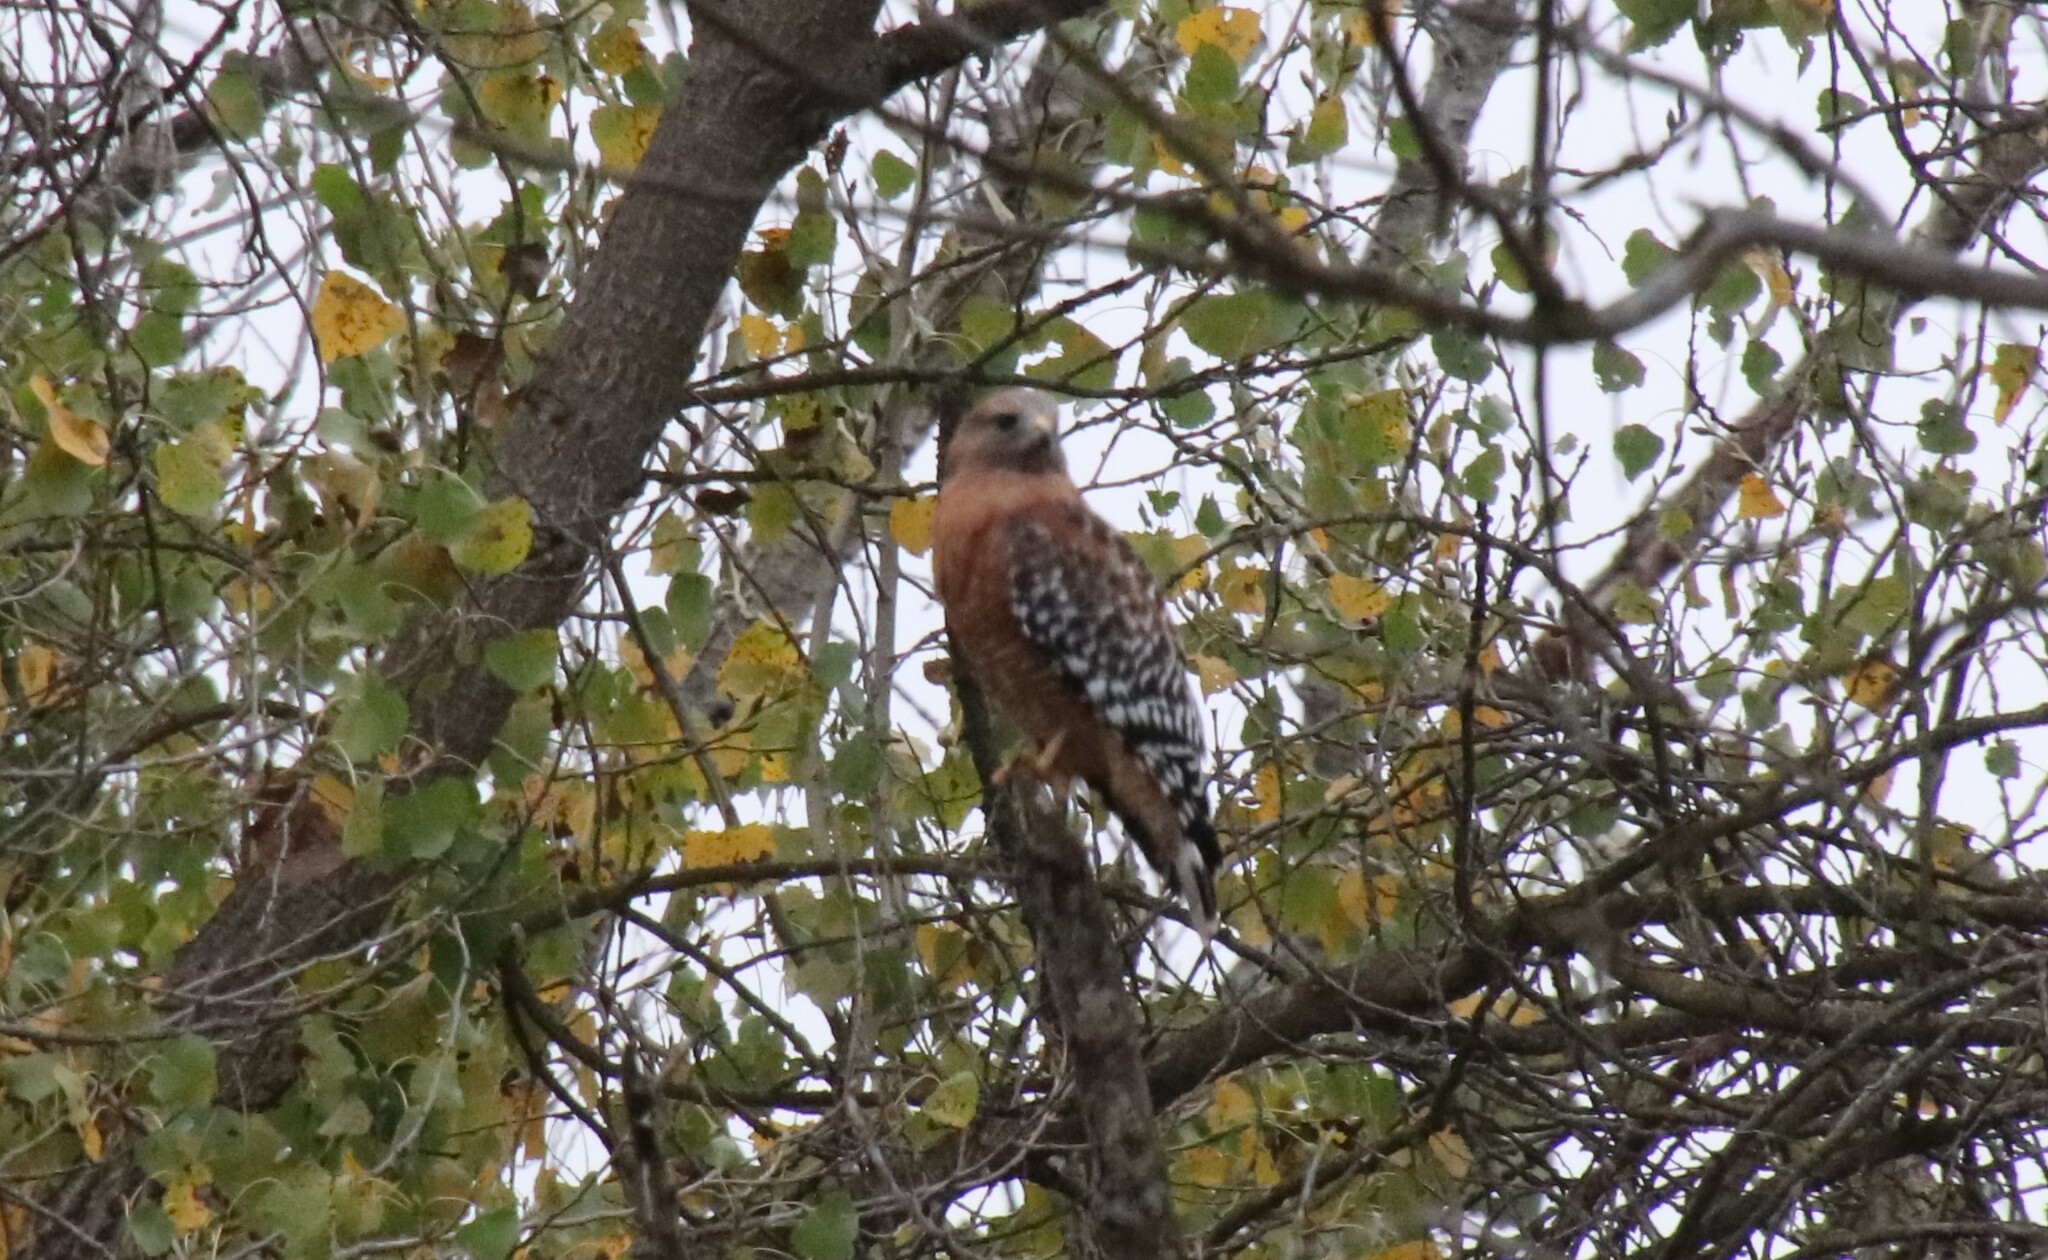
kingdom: Animalia
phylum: Chordata
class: Aves
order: Accipitriformes
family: Accipitridae
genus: Buteo
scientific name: Buteo lineatus
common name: Red-shouldered hawk
